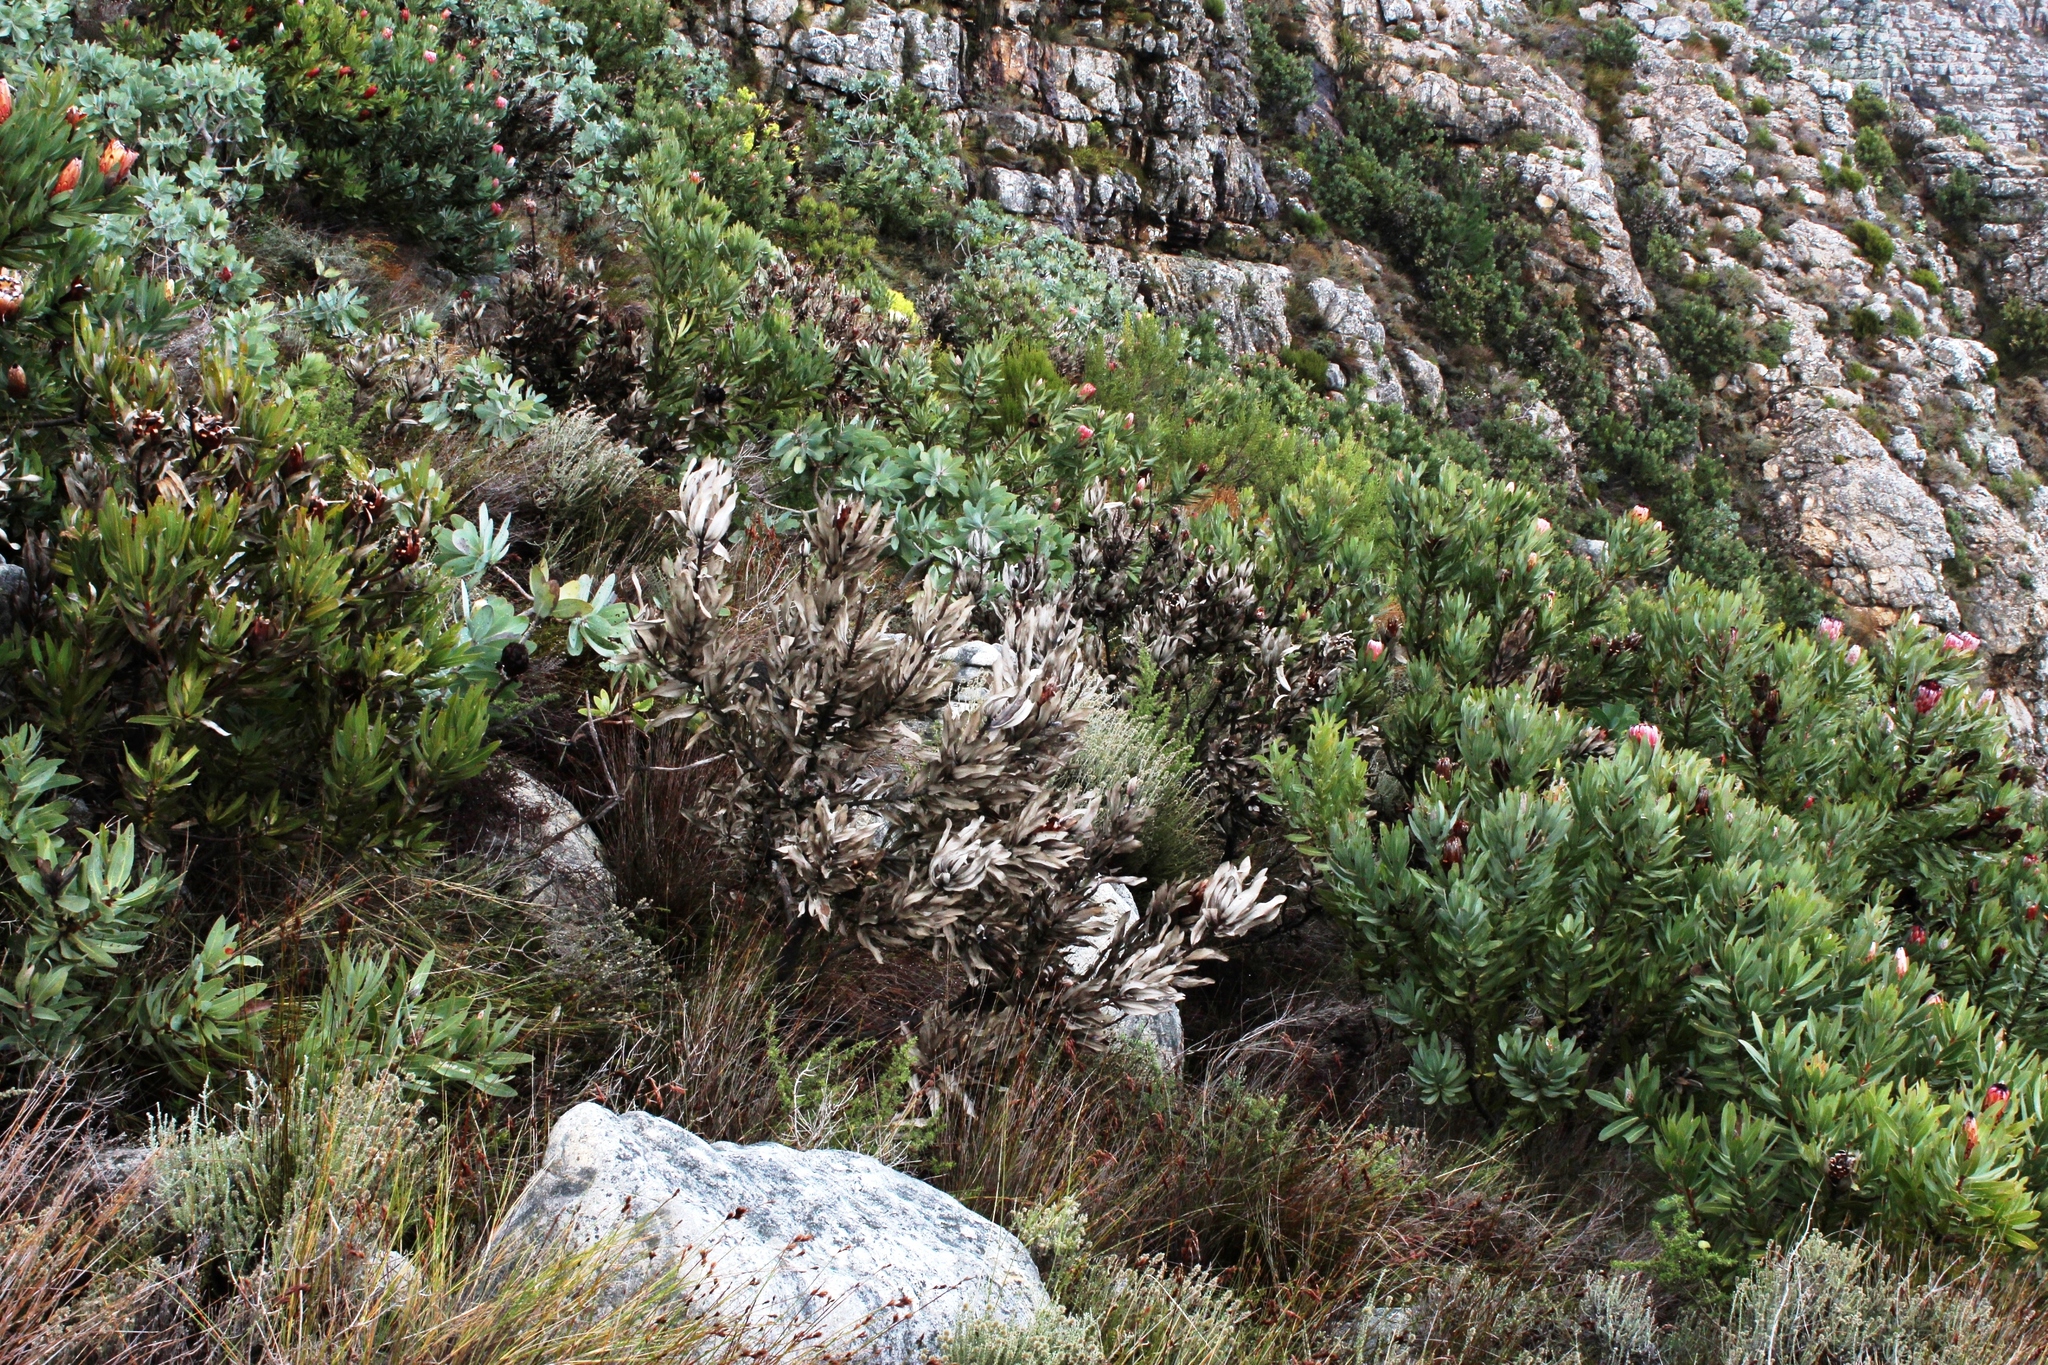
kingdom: Plantae
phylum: Tracheophyta
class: Magnoliopsida
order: Proteales
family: Proteaceae
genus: Protea
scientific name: Protea laurifolia
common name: Grey-leaf sugarbsh
